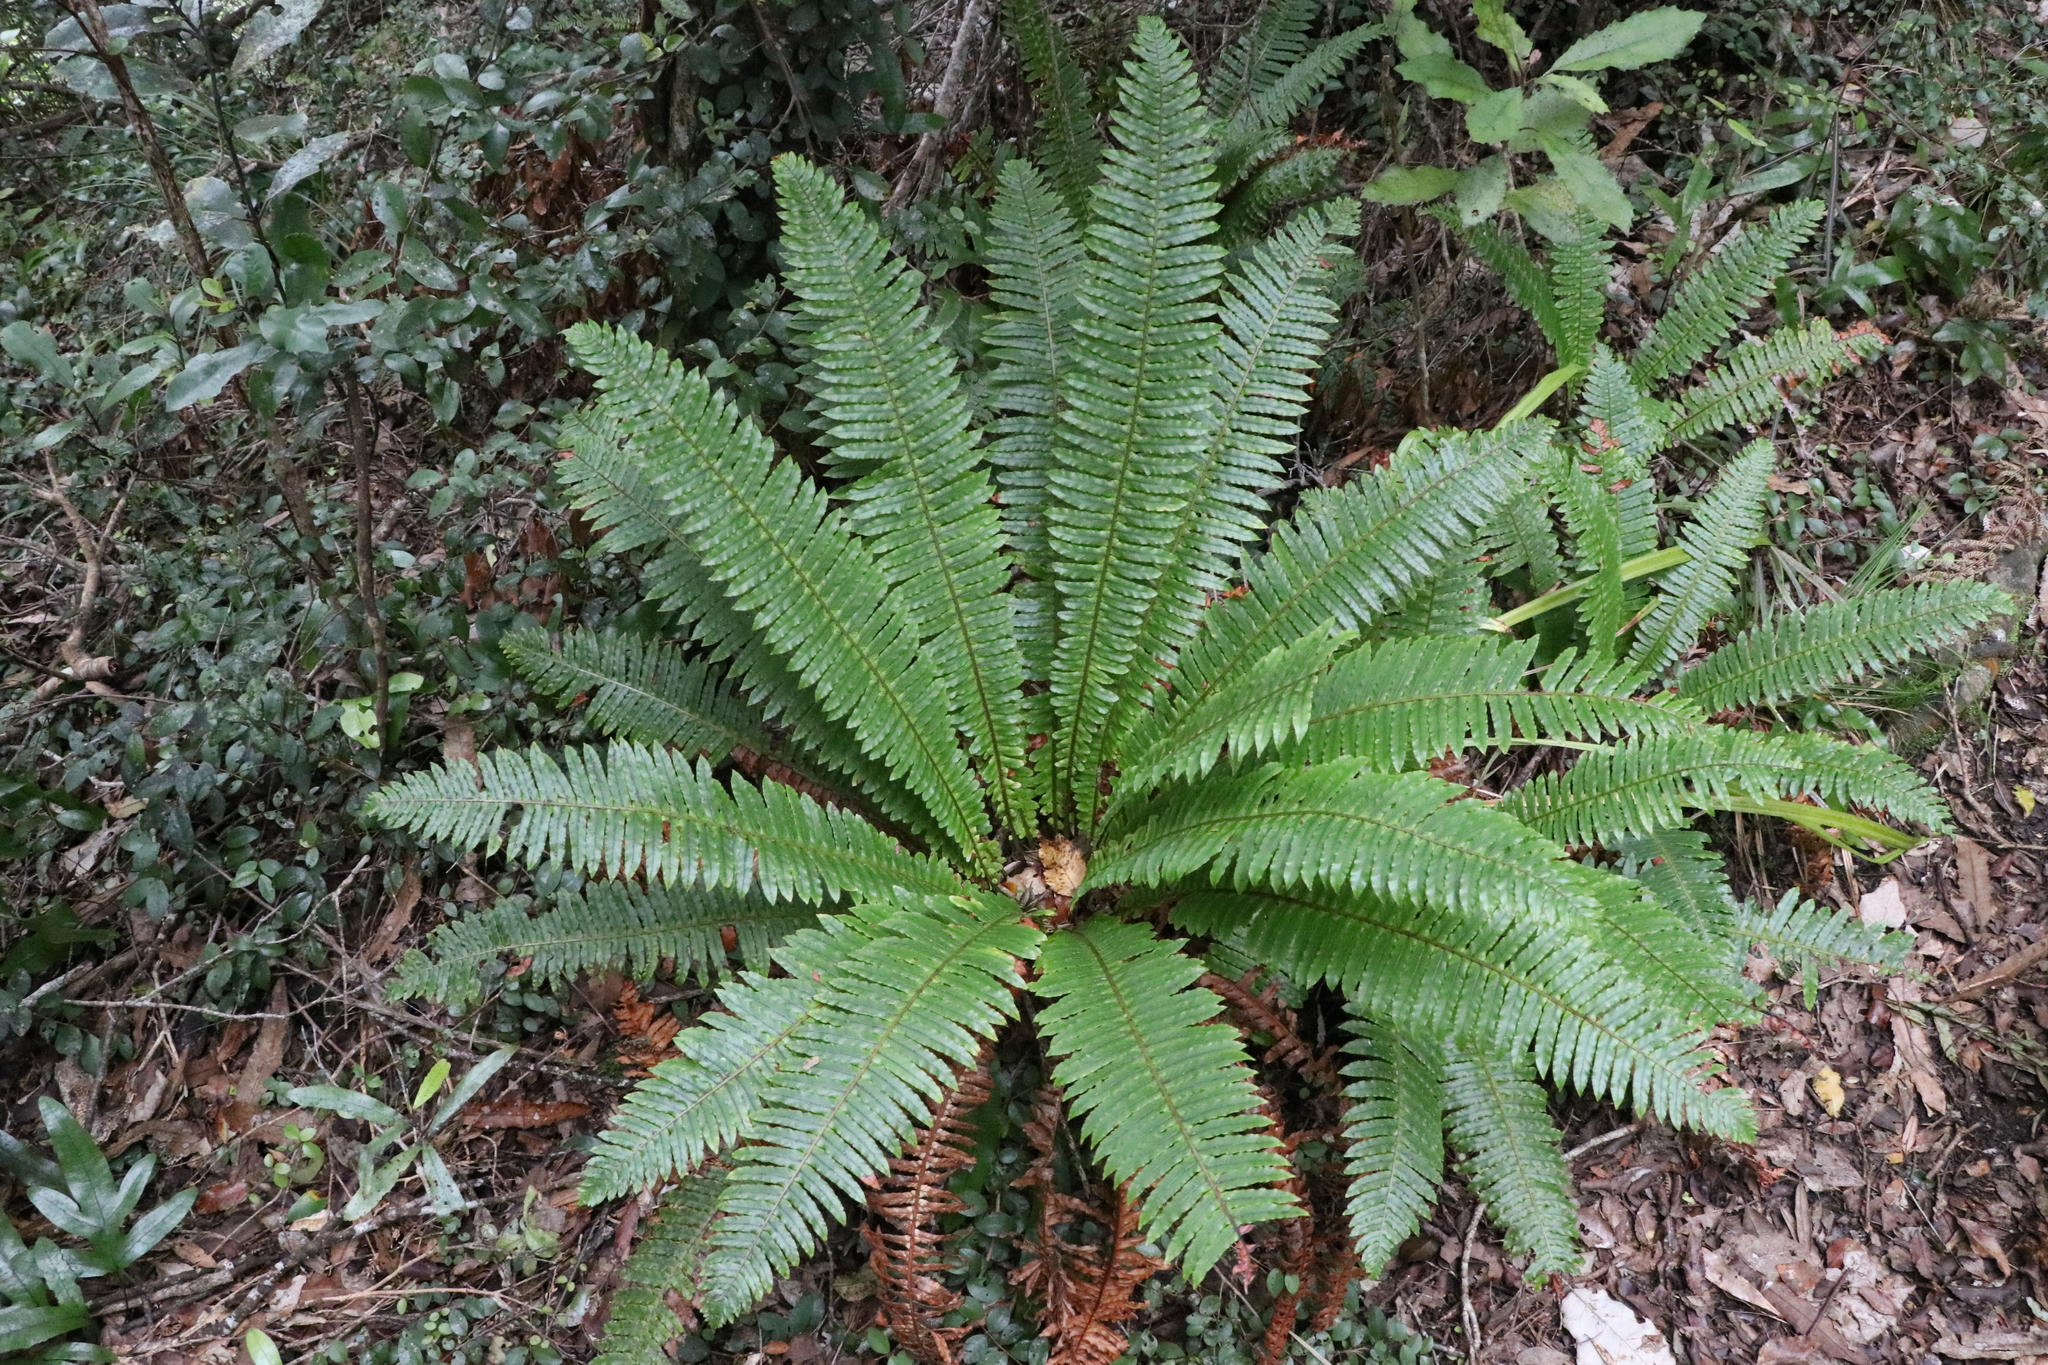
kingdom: Plantae
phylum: Tracheophyta
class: Polypodiopsida
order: Polypodiales
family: Blechnaceae
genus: Lomaria
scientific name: Lomaria discolor
